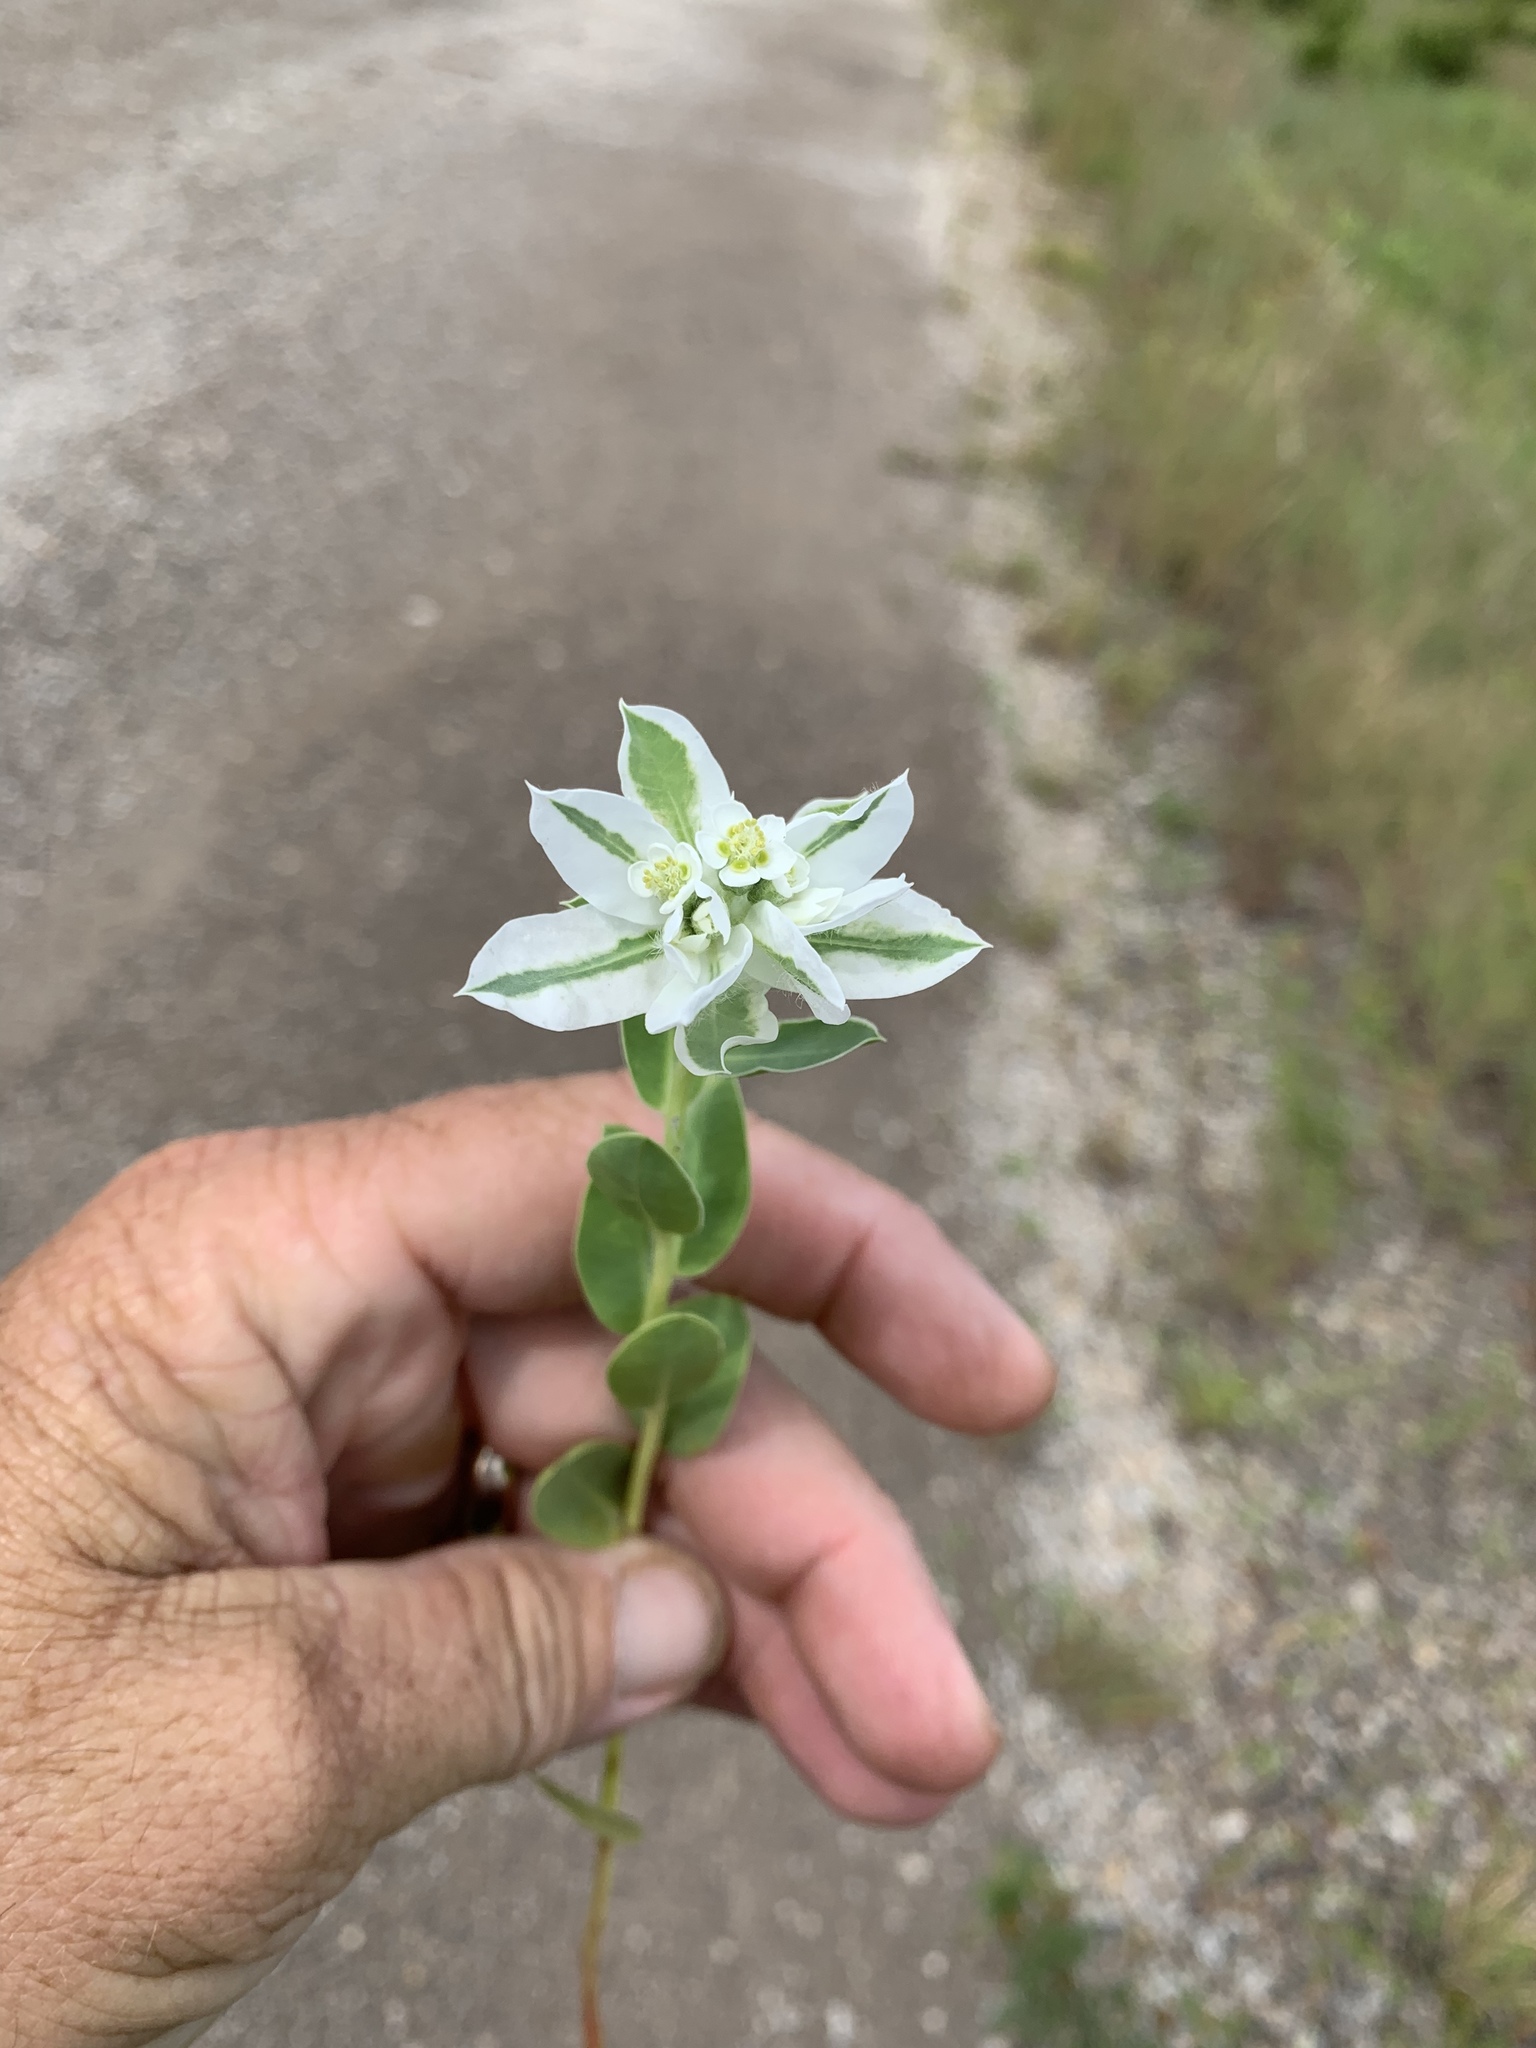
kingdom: Plantae
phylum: Tracheophyta
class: Magnoliopsida
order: Malpighiales
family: Euphorbiaceae
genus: Euphorbia
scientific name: Euphorbia marginata
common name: Ghostweed
